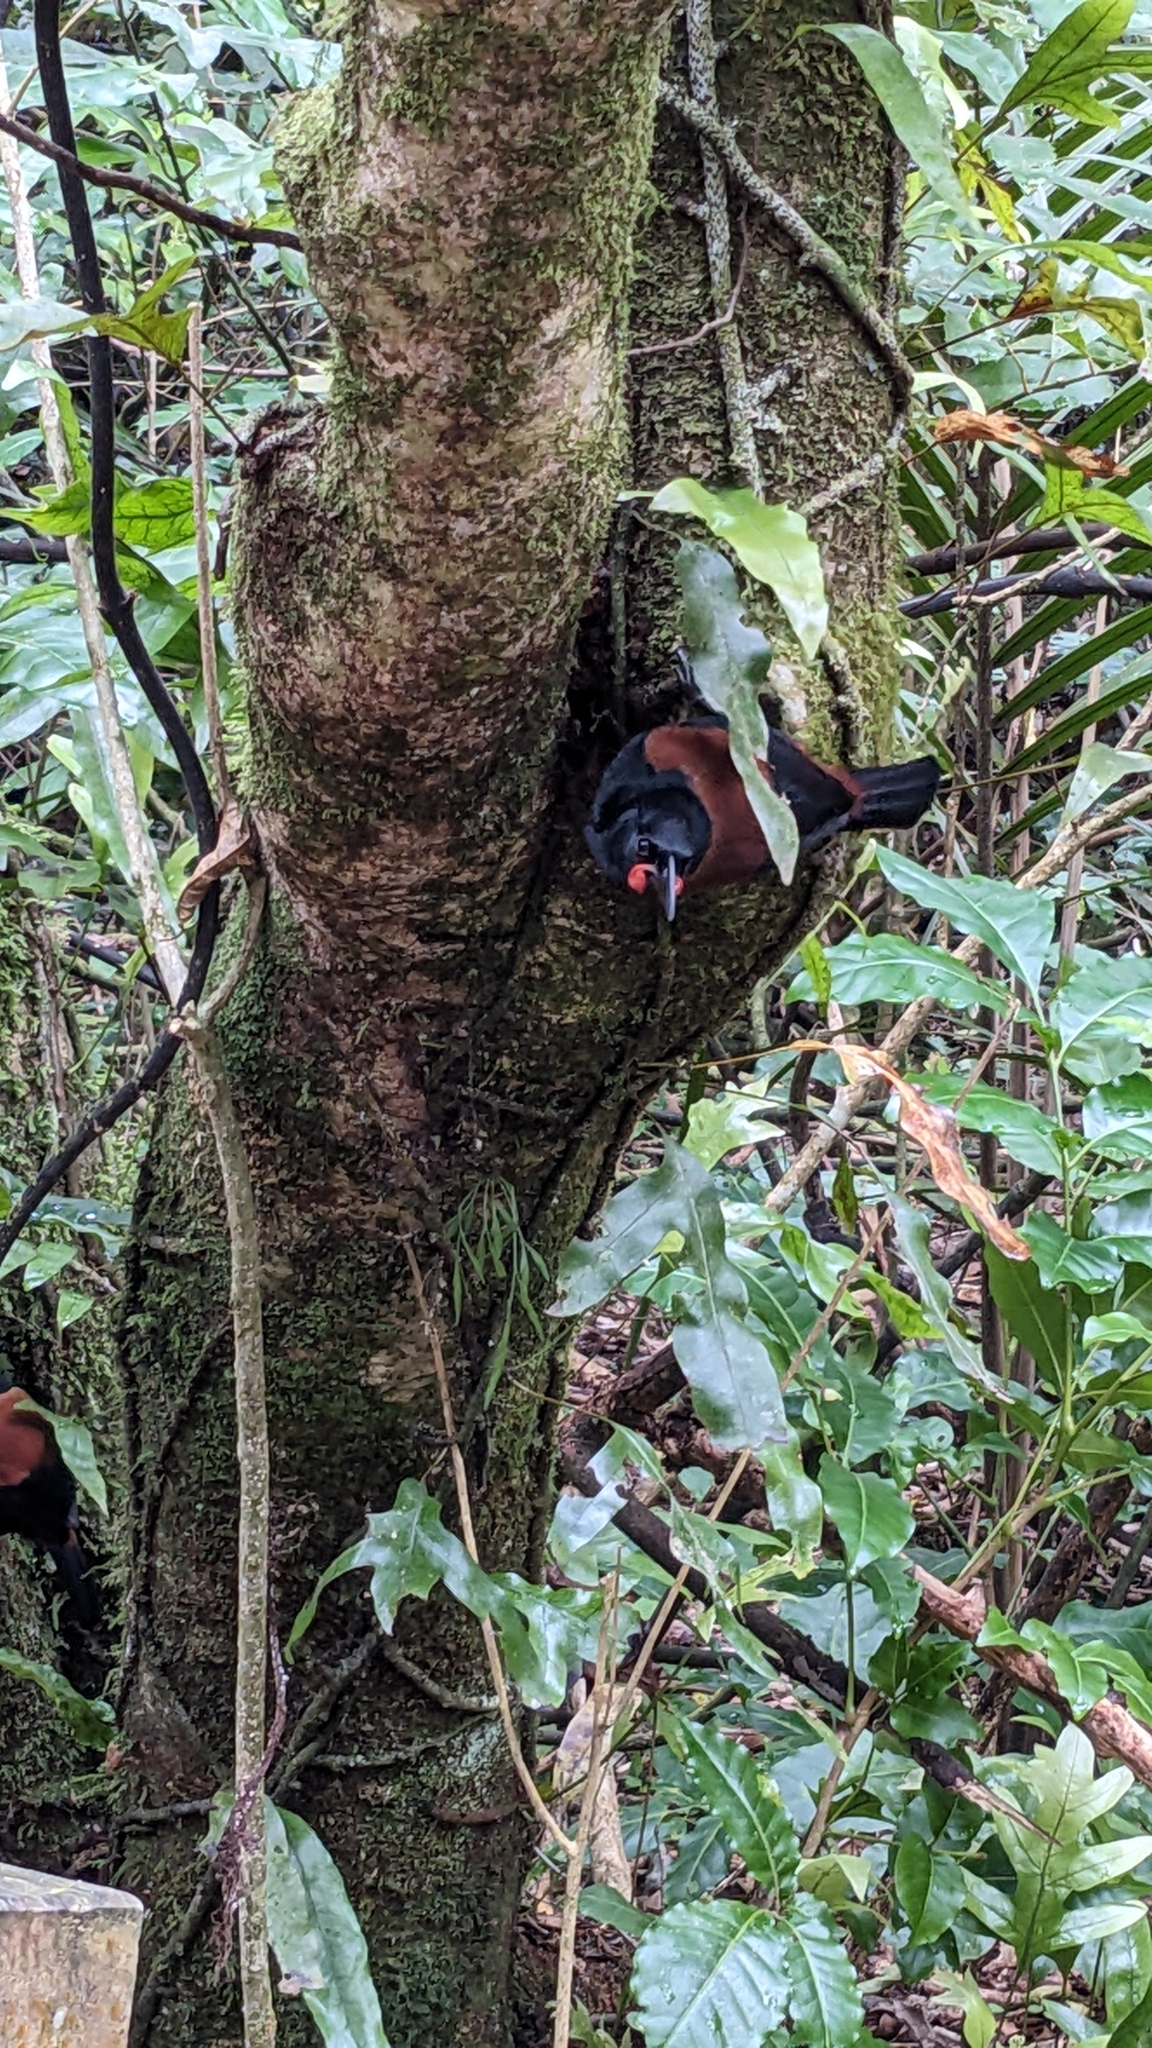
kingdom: Animalia
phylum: Chordata
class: Aves
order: Passeriformes
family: Callaeatidae
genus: Philesturnus
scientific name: Philesturnus carunculatus
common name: South island saddleback
